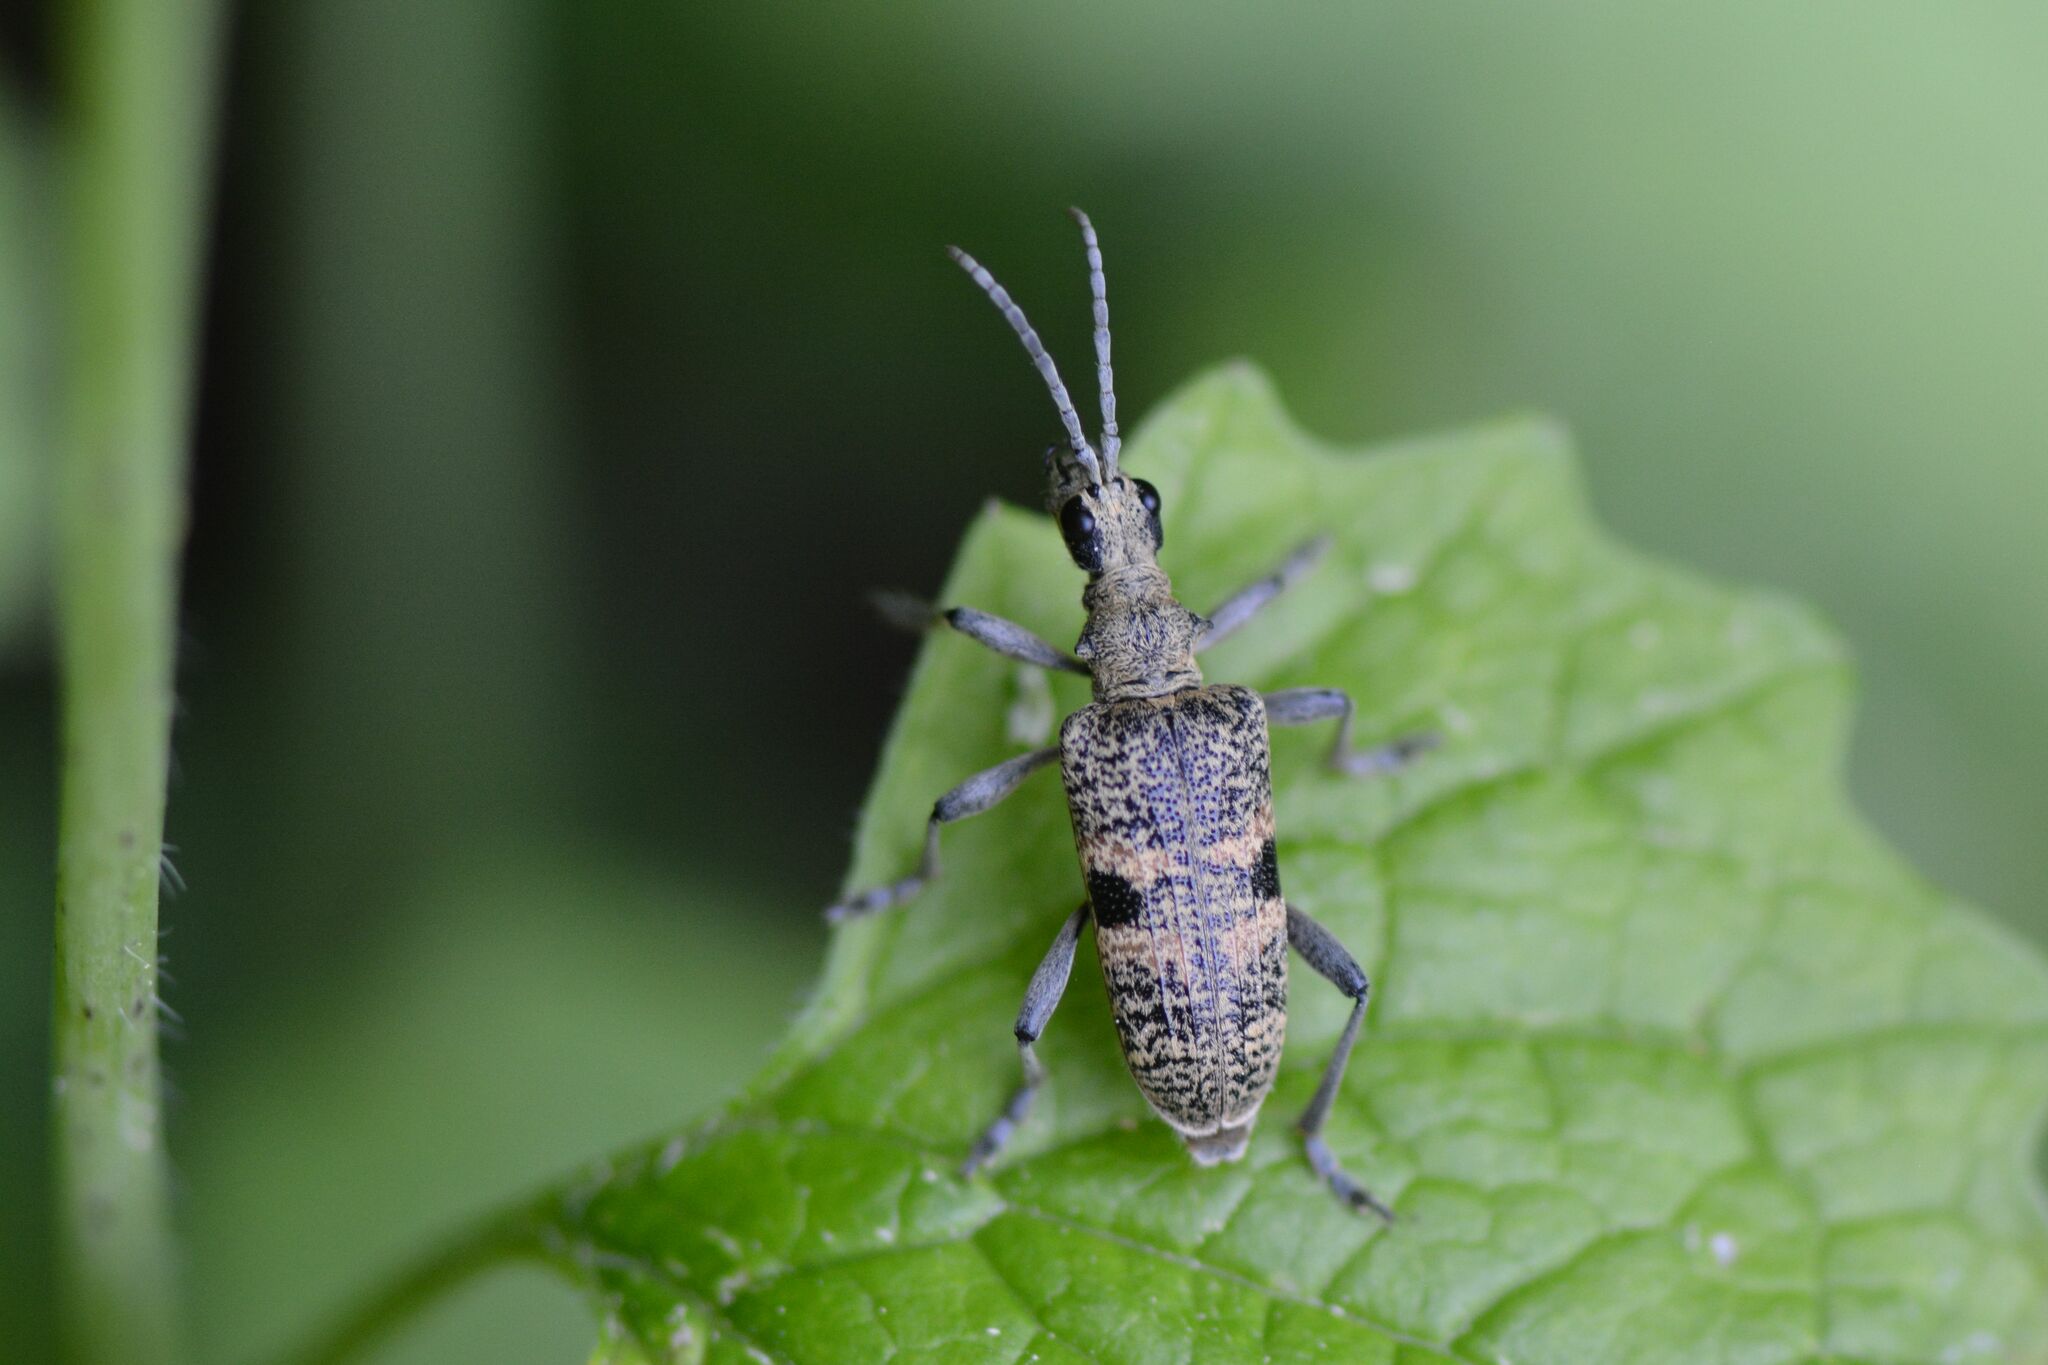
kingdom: Animalia
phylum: Arthropoda
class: Insecta
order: Coleoptera
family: Cerambycidae
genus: Rhagium
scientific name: Rhagium mordax
